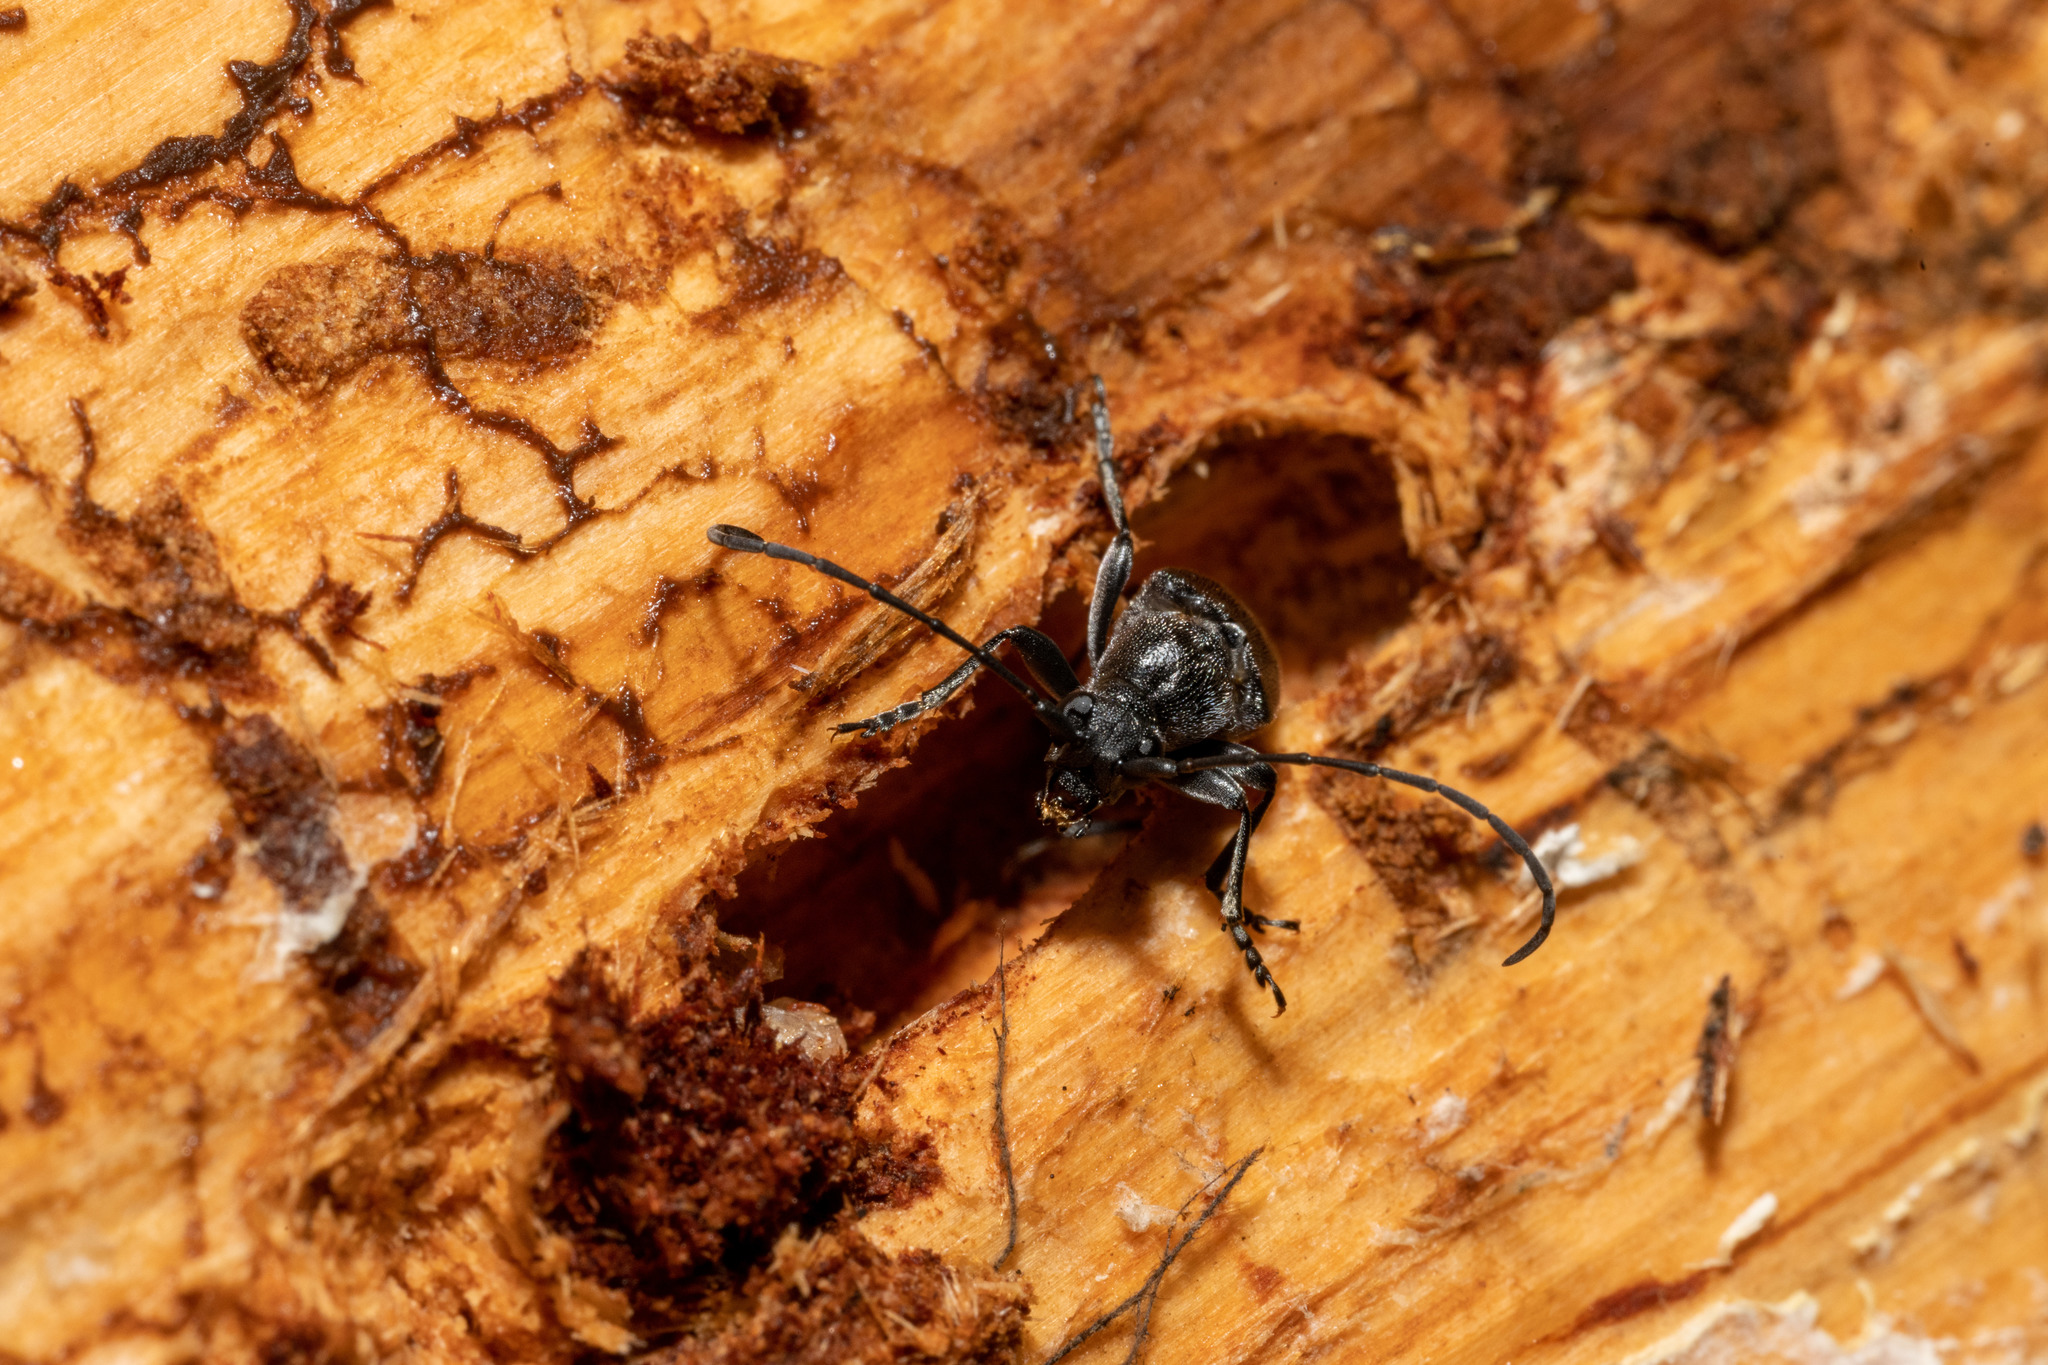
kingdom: Animalia
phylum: Arthropoda
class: Insecta
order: Coleoptera
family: Cerambycidae
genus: Anastrangalia
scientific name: Anastrangalia laetifica
